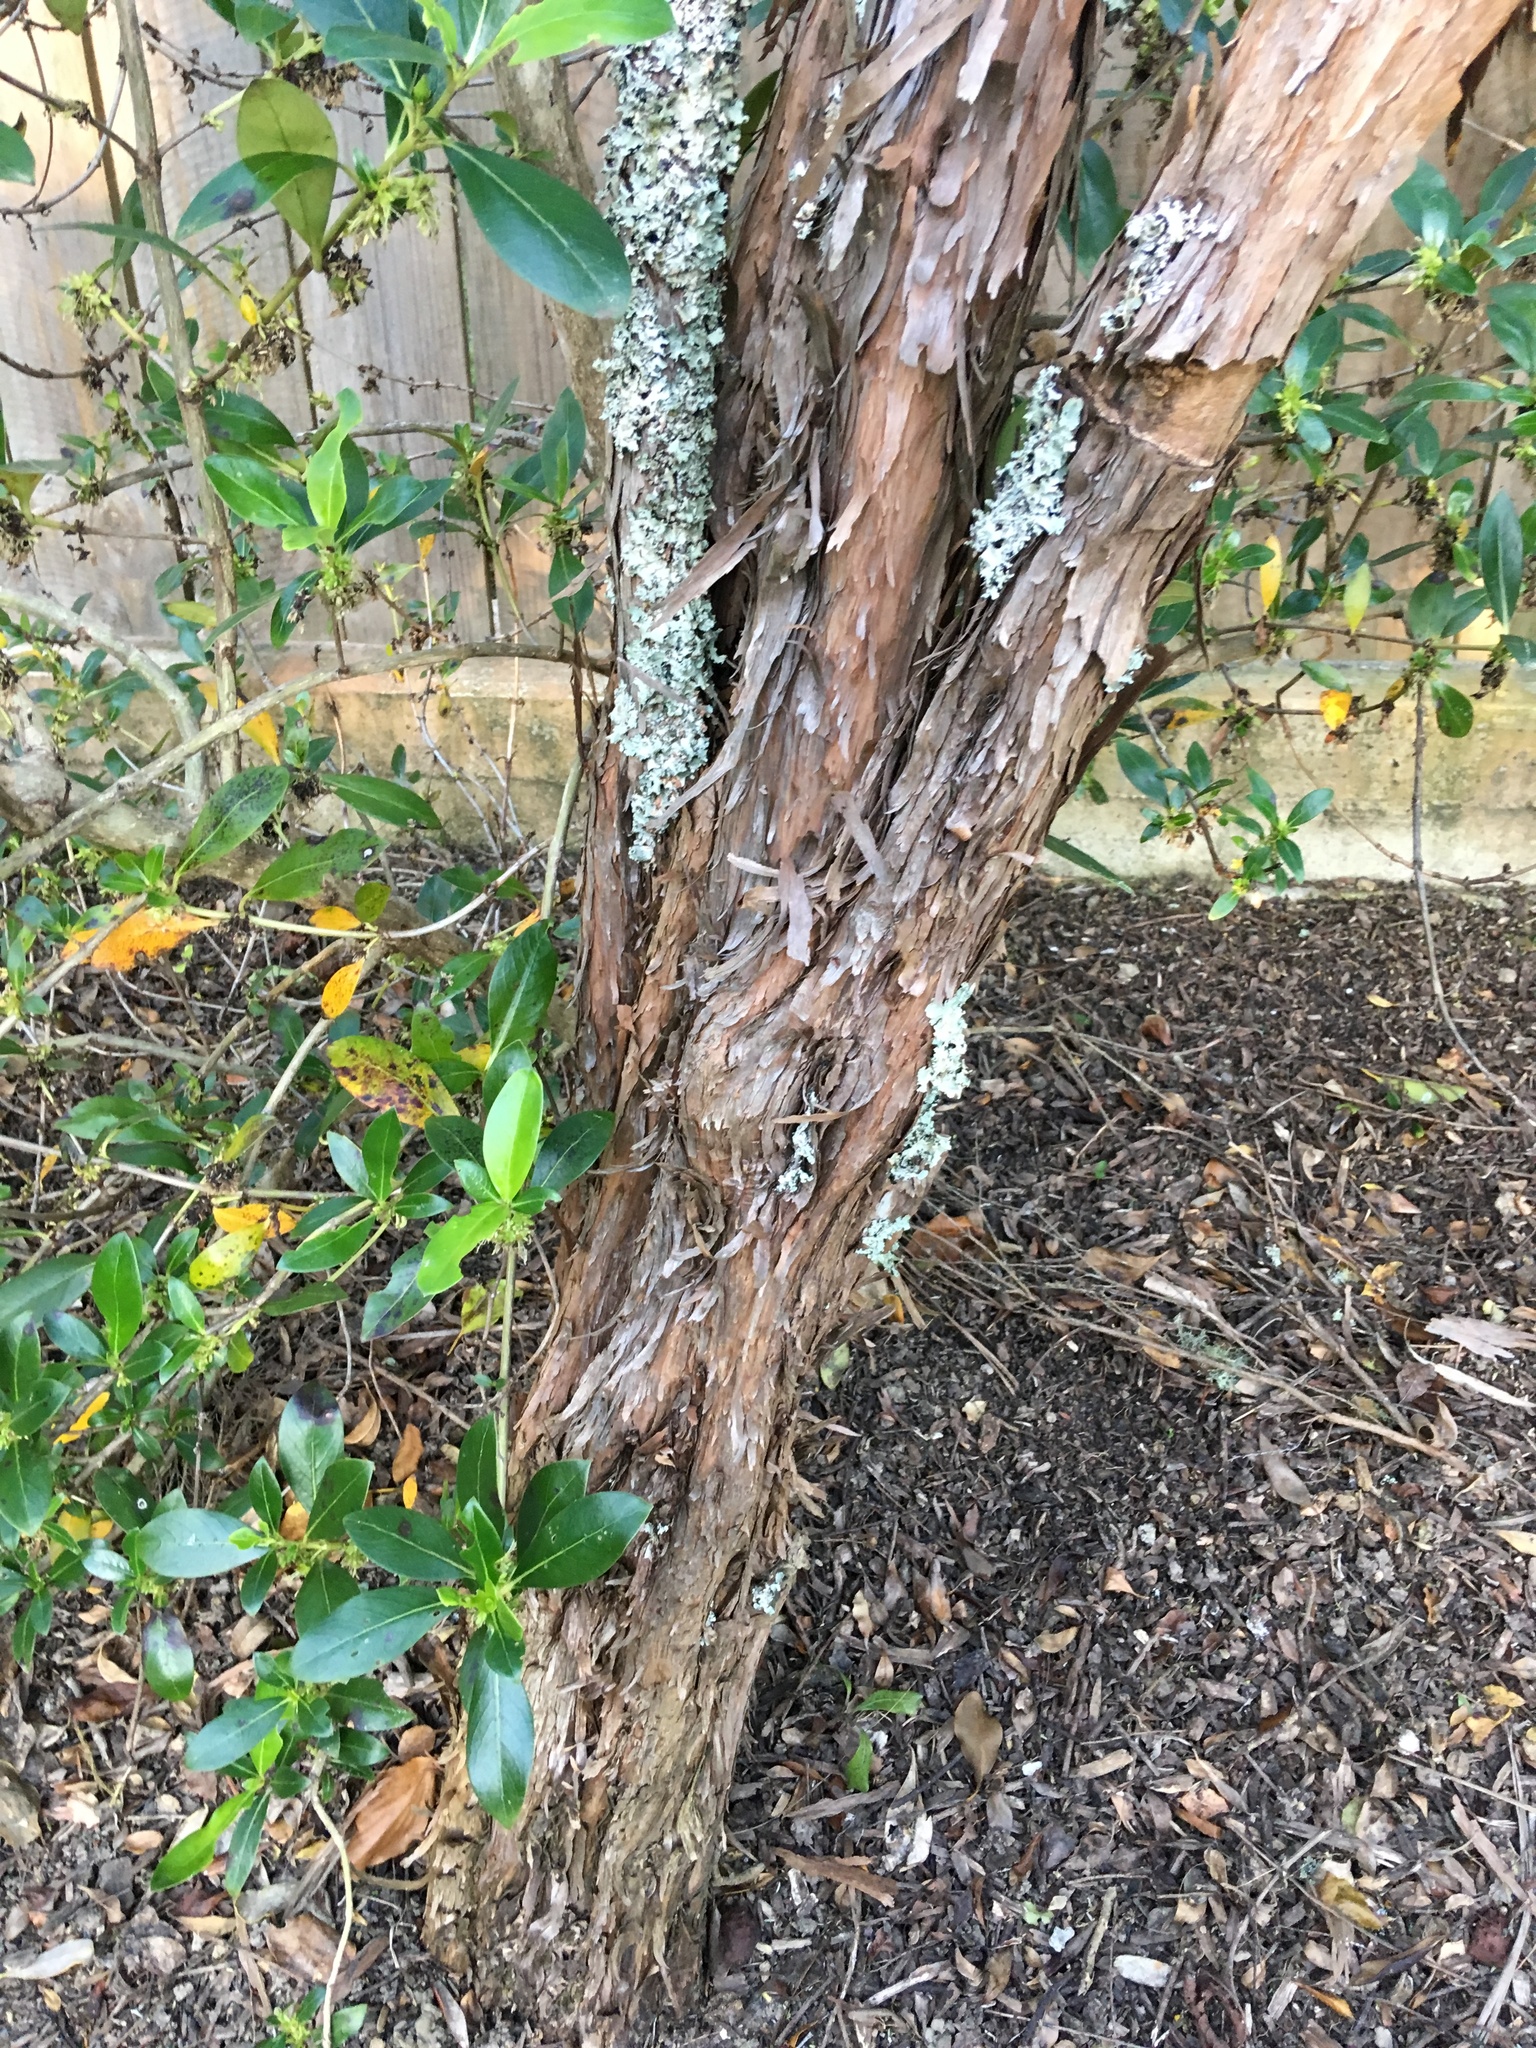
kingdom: Plantae
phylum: Tracheophyta
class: Magnoliopsida
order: Gentianales
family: Rubiaceae
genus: Coprosma
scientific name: Coprosma robusta
